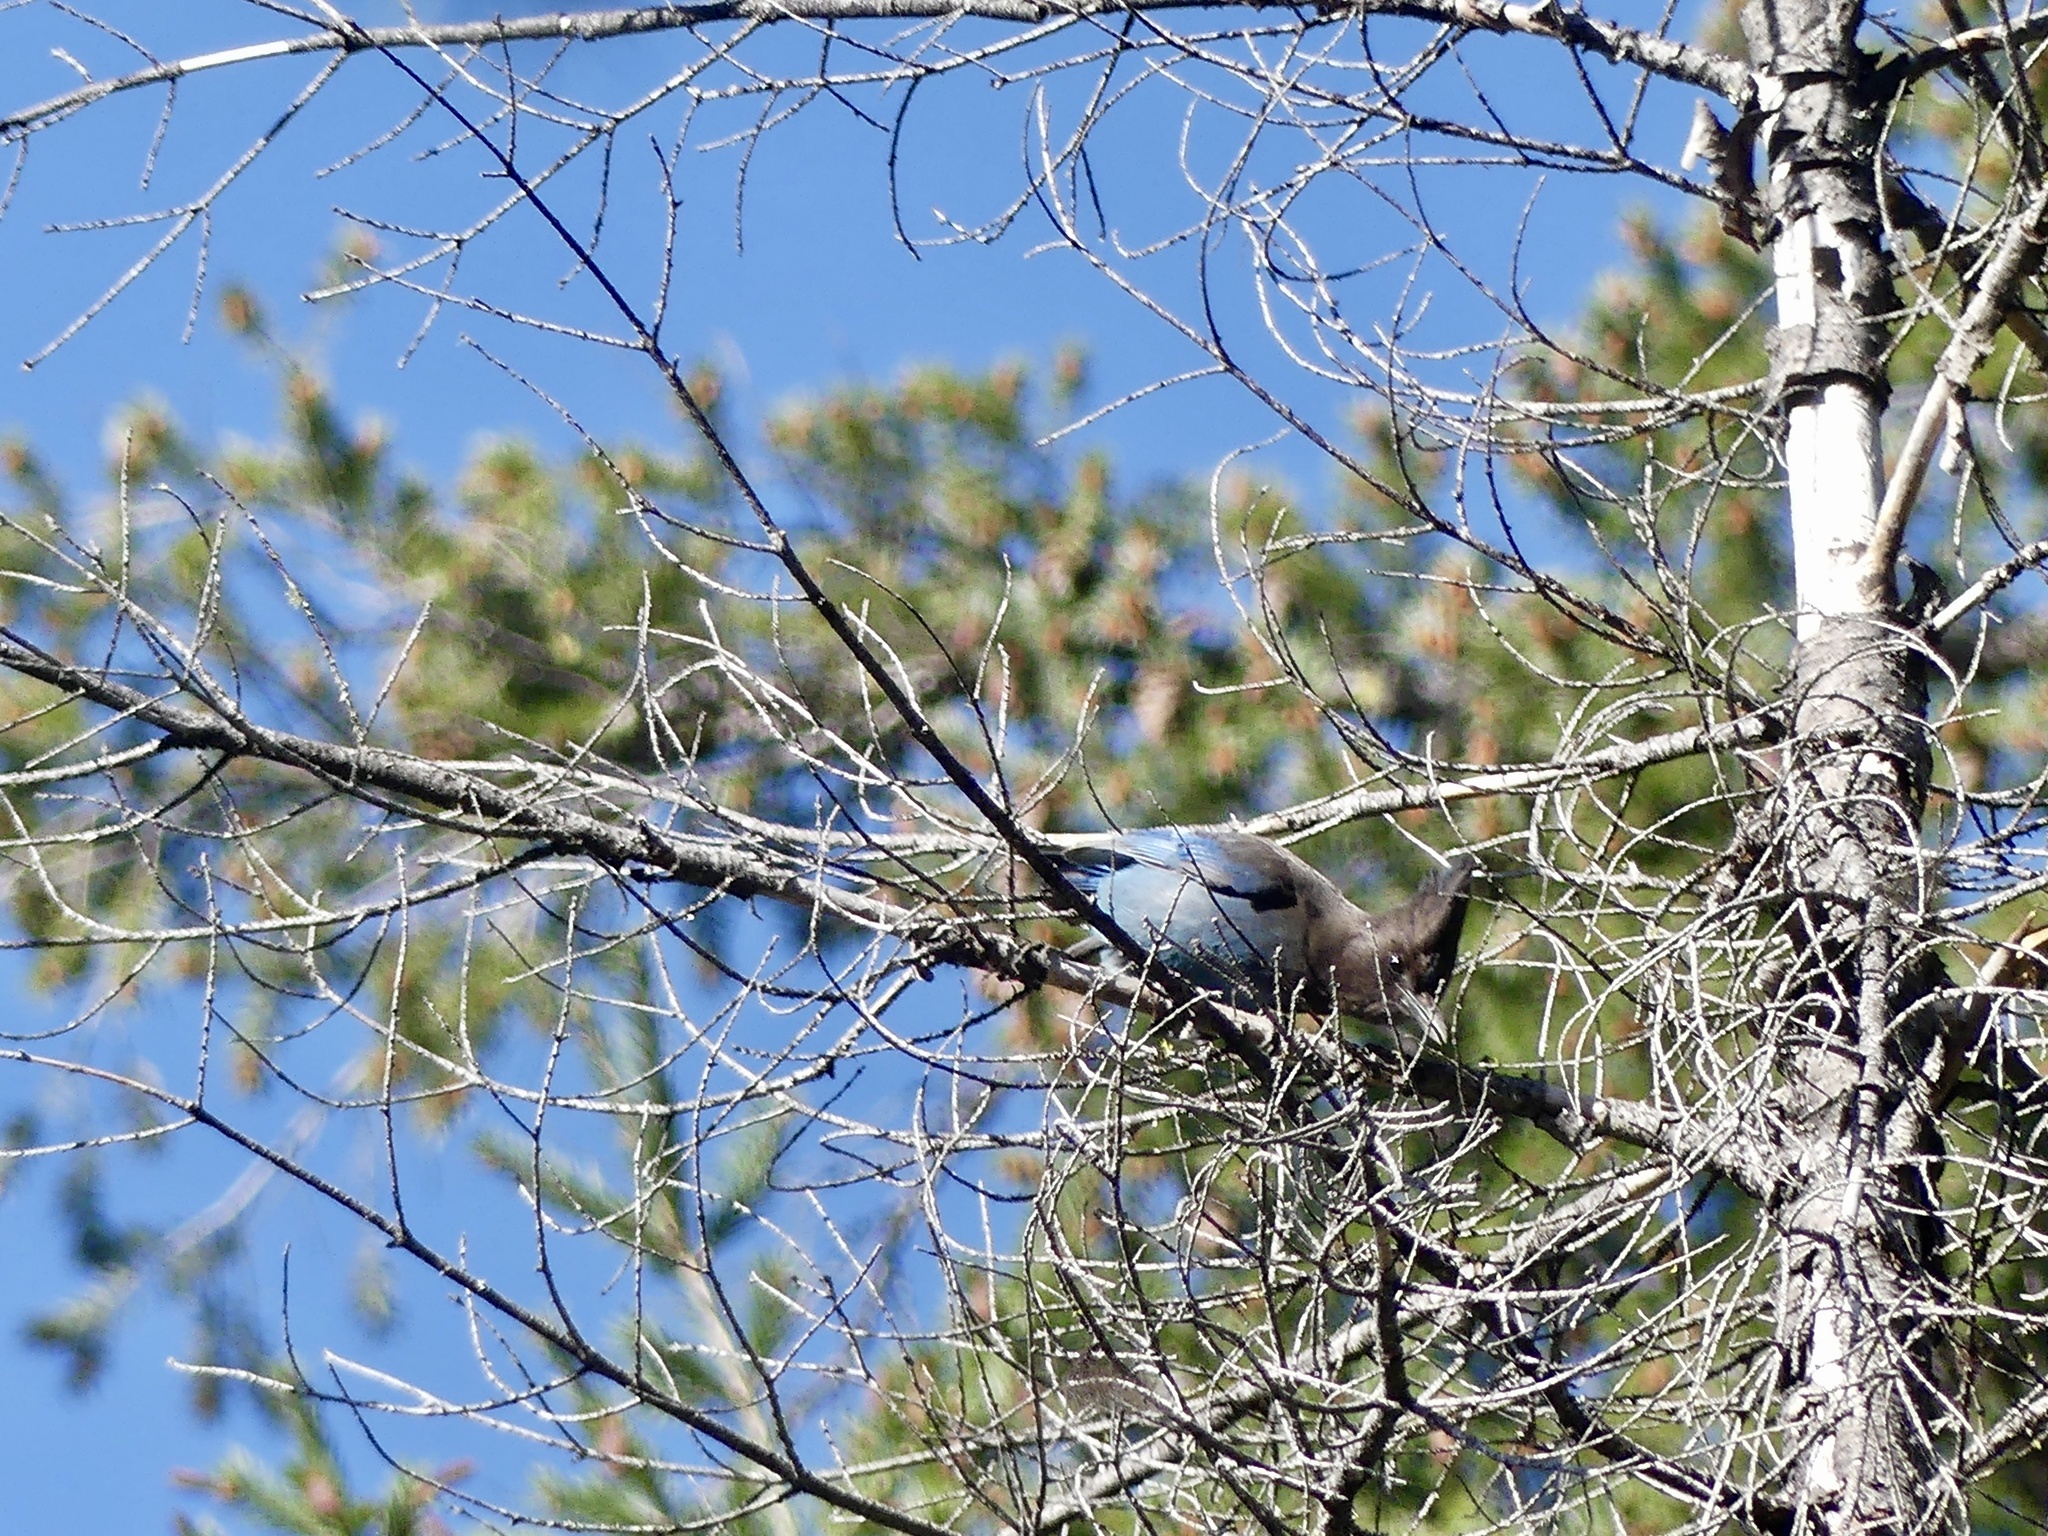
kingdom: Animalia
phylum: Chordata
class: Aves
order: Passeriformes
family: Corvidae
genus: Cyanocitta
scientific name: Cyanocitta stelleri
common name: Steller's jay
